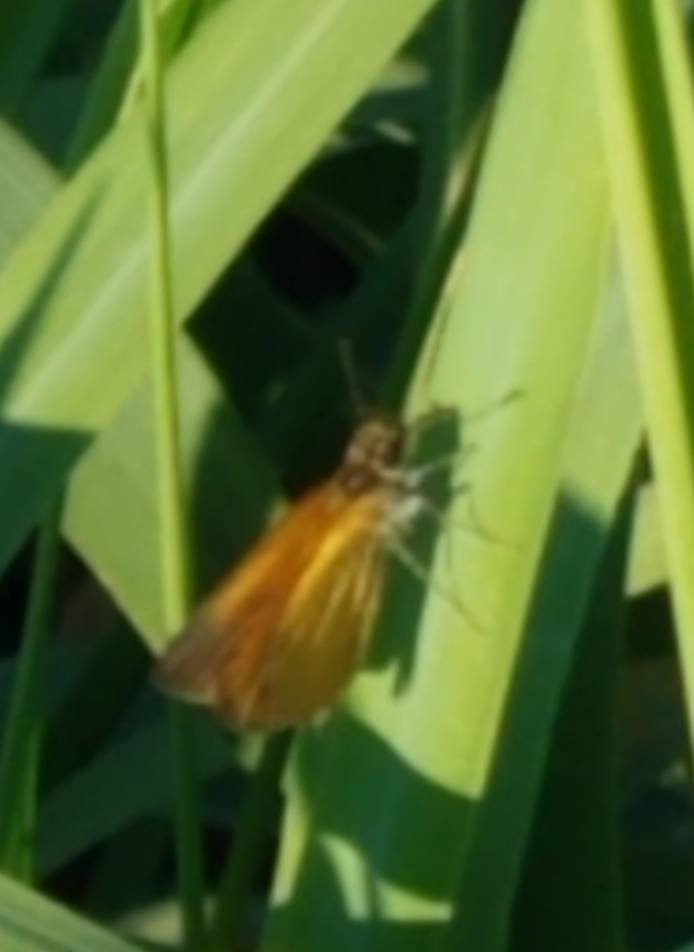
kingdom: Animalia
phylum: Arthropoda
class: Insecta
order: Lepidoptera
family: Hesperiidae
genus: Ancyloxypha
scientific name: Ancyloxypha numitor
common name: Least skipper
